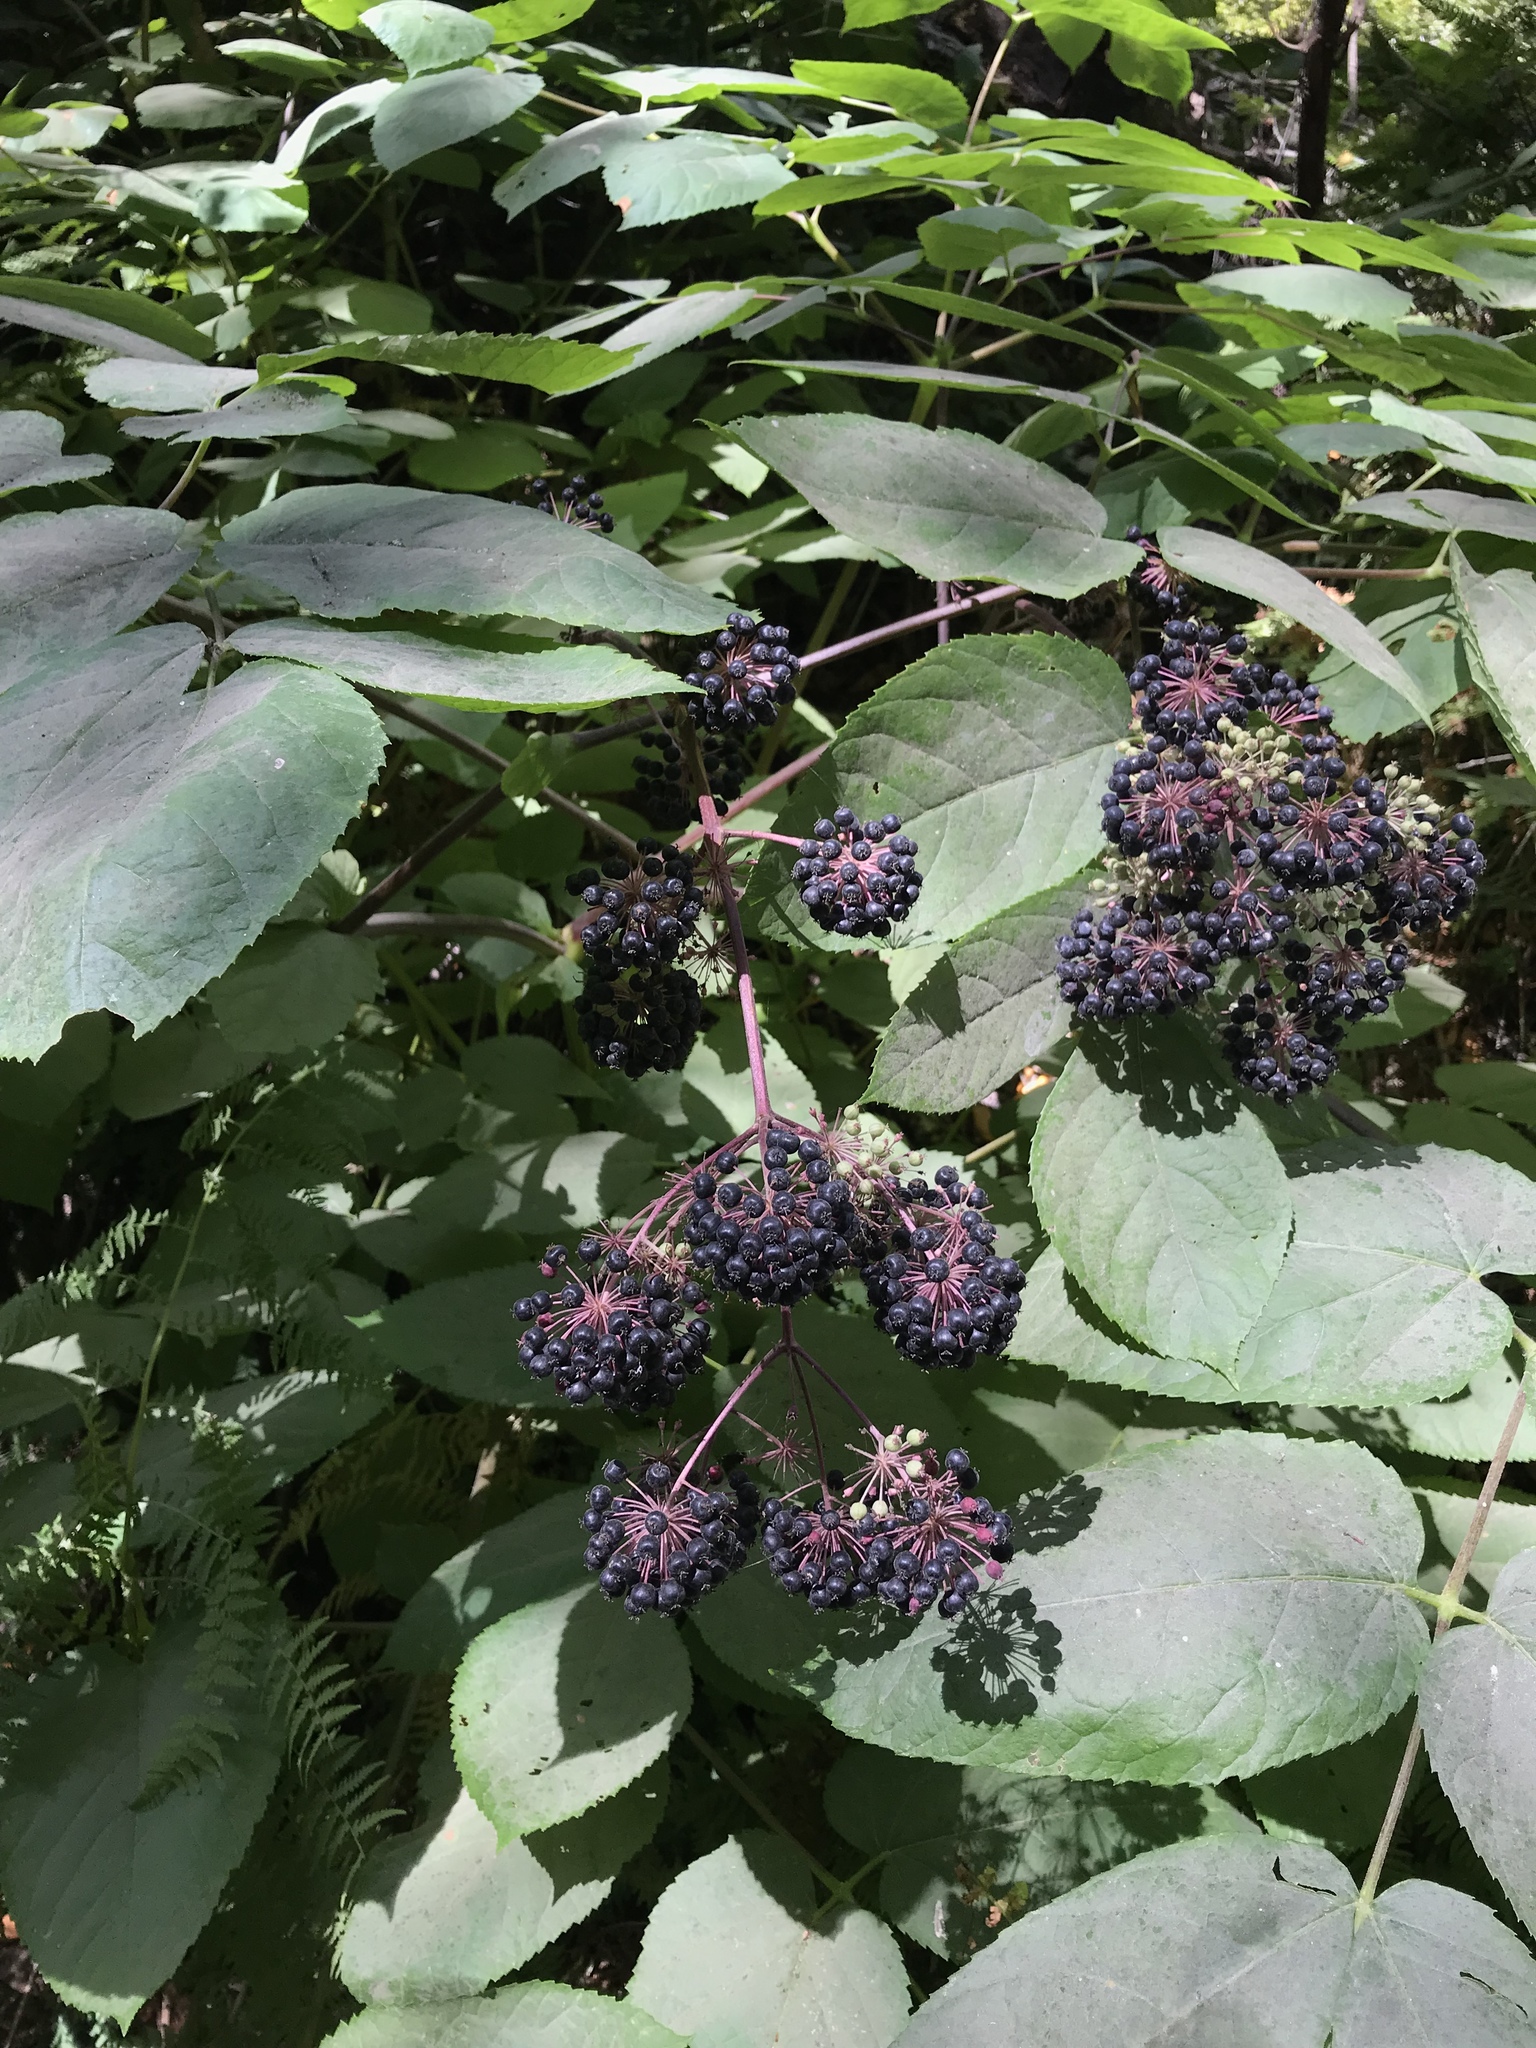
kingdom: Plantae
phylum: Tracheophyta
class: Magnoliopsida
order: Apiales
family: Araliaceae
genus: Aralia
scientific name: Aralia californica
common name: California-ginseng
